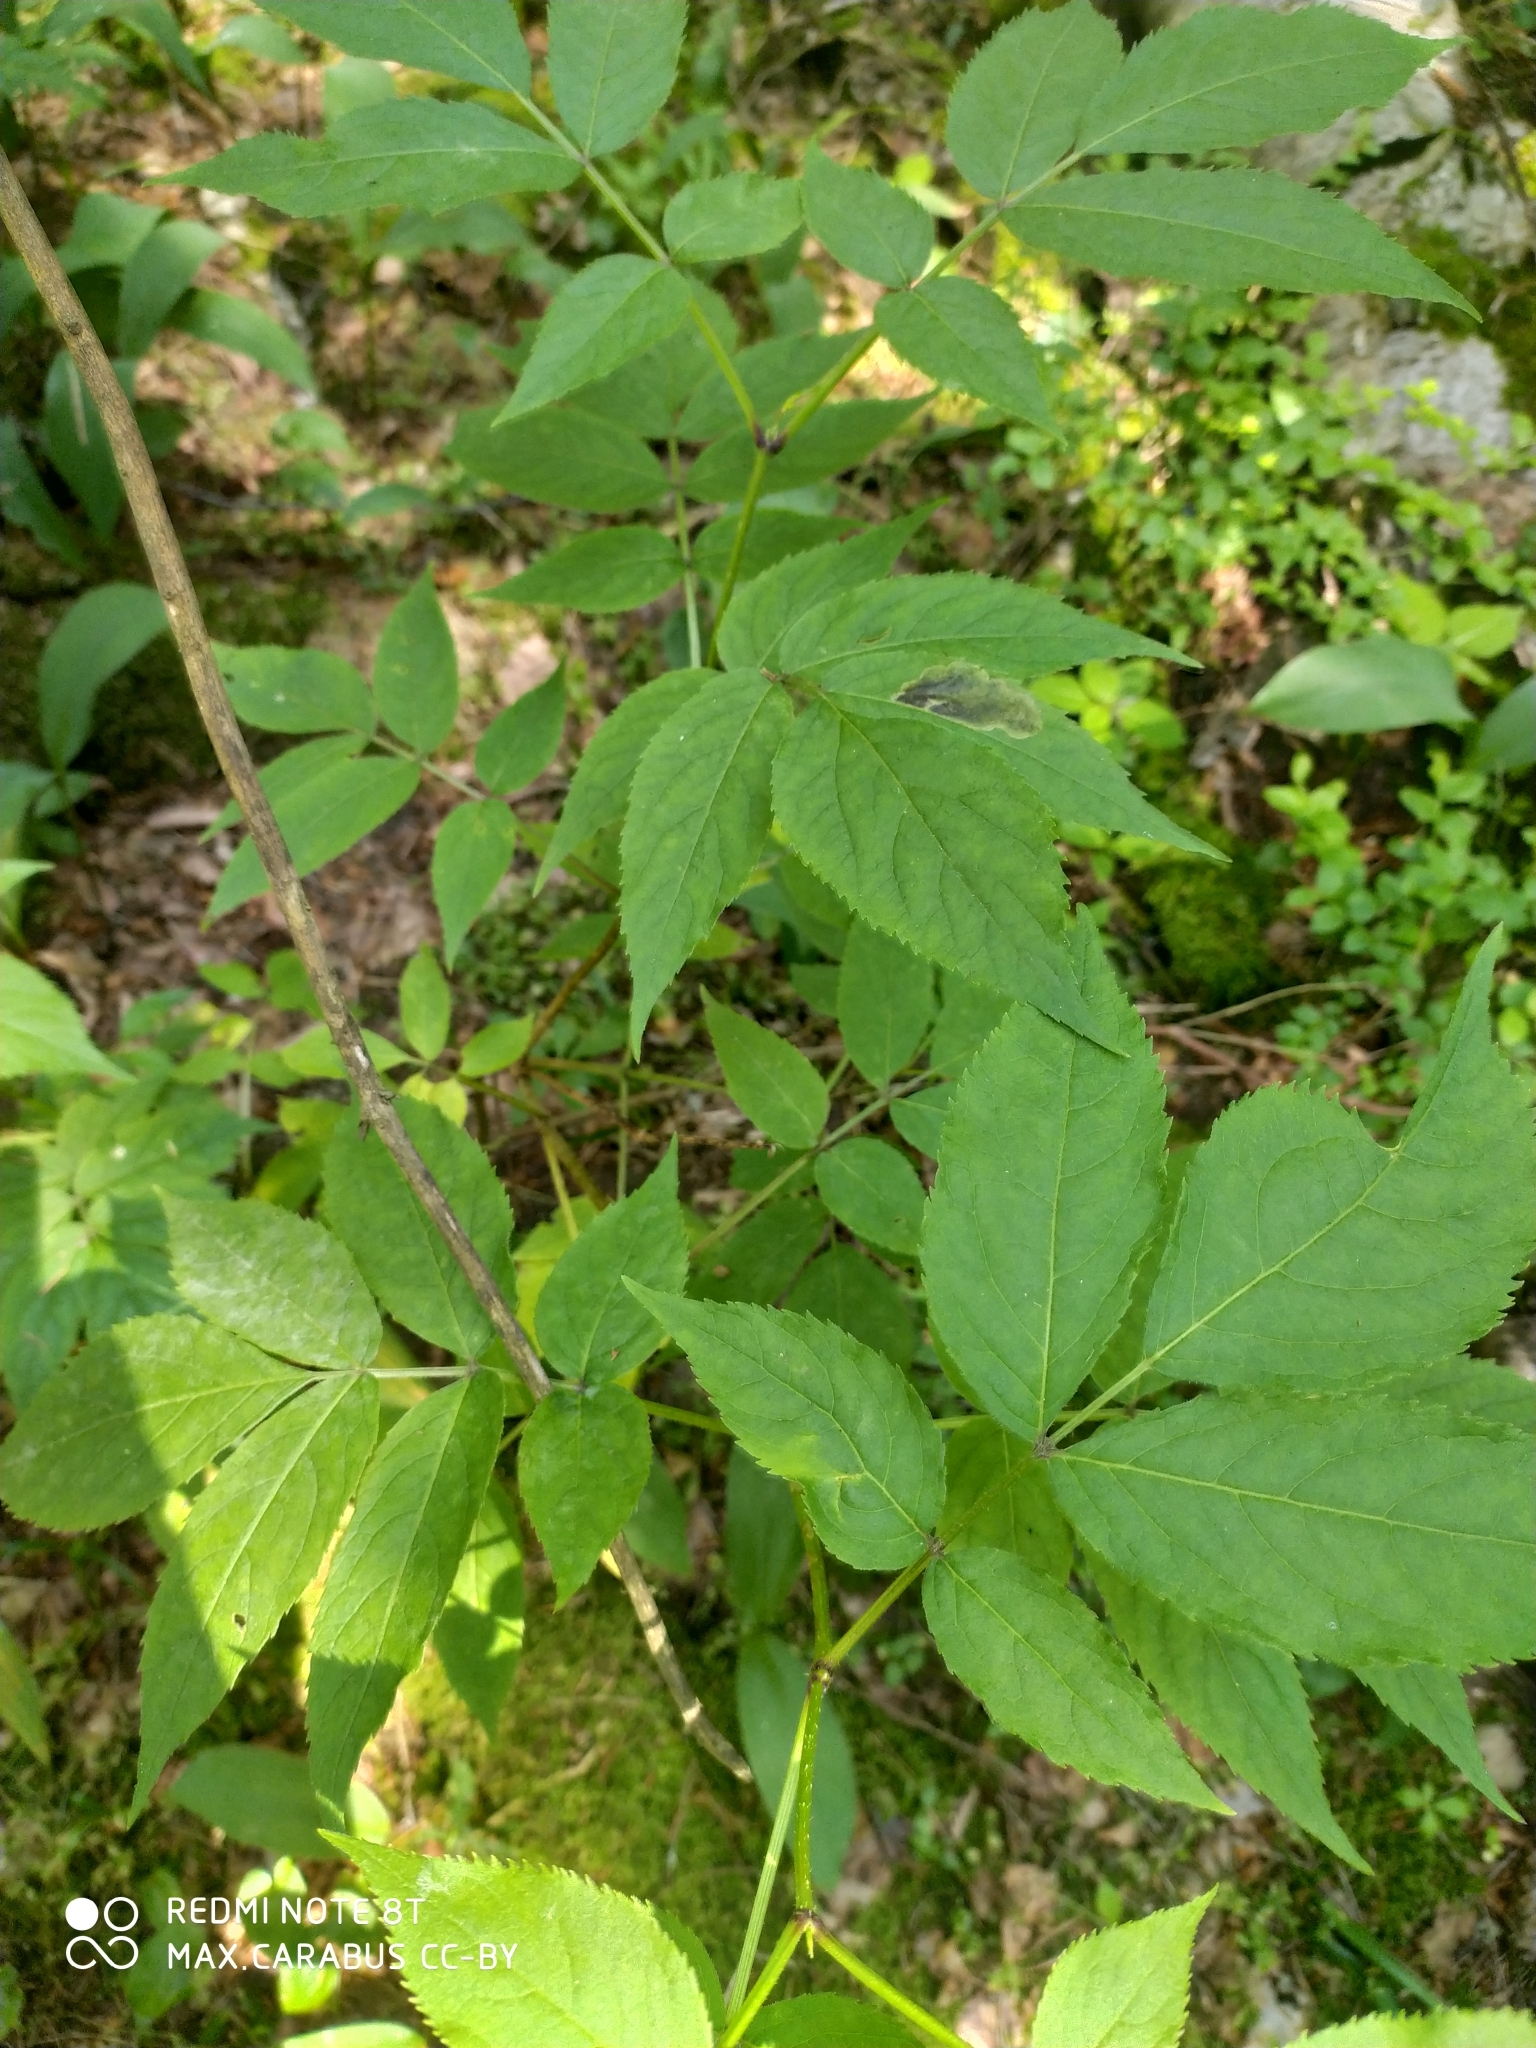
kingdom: Plantae
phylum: Tracheophyta
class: Magnoliopsida
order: Dipsacales
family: Viburnaceae
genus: Sambucus
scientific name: Sambucus racemosa
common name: Red-berried elder
